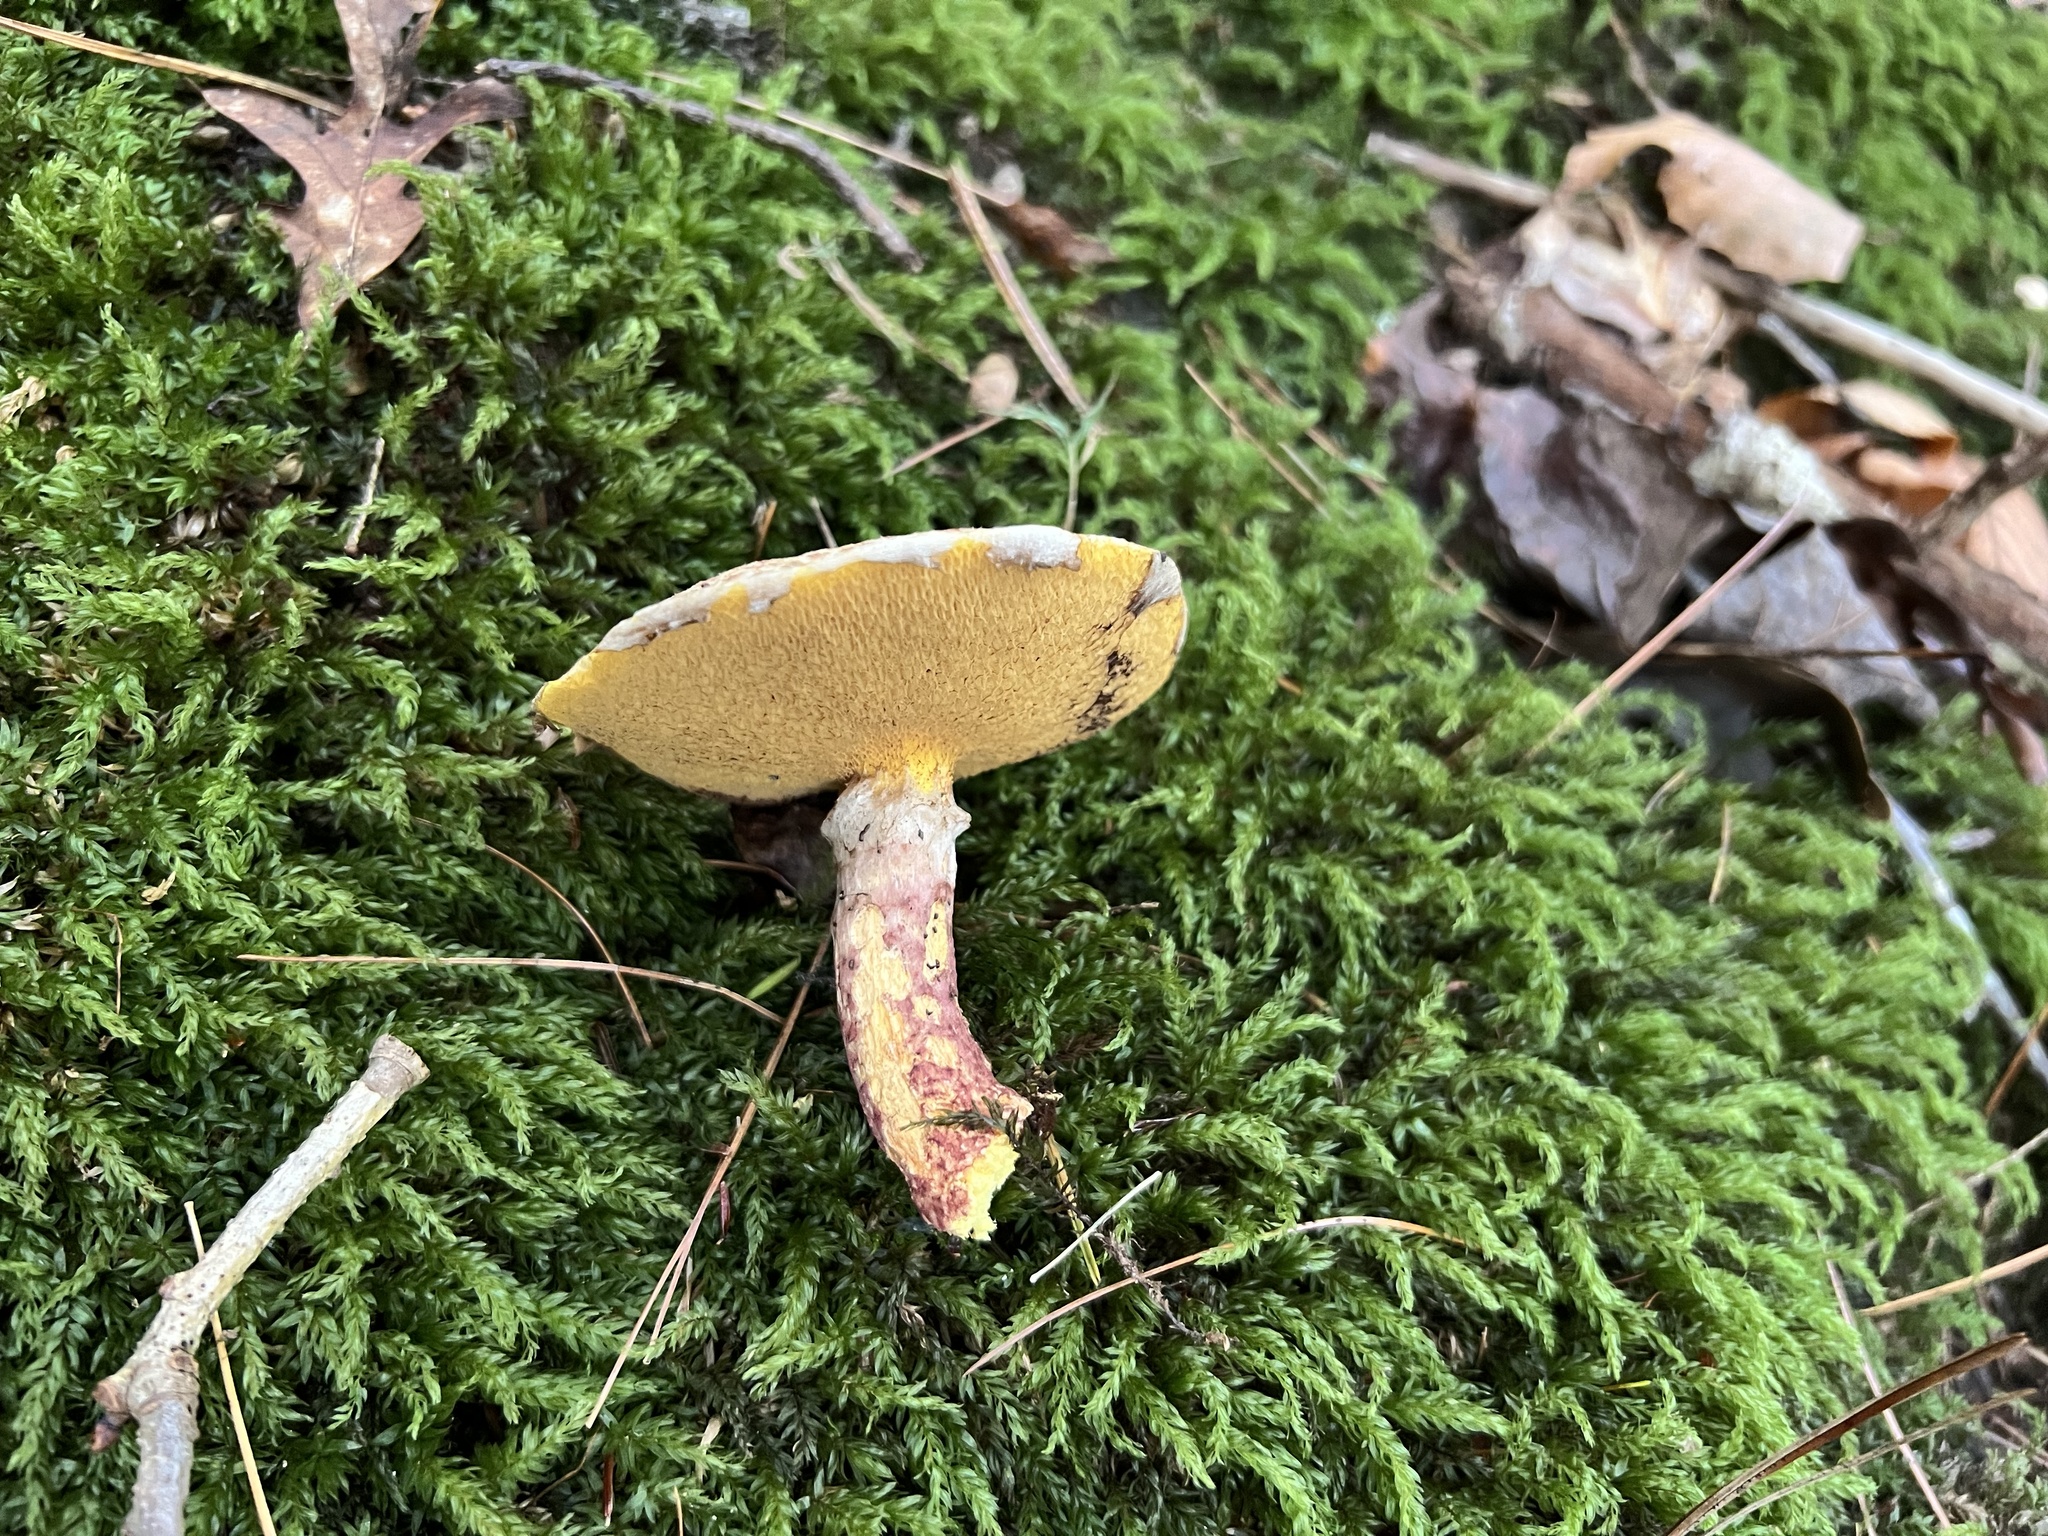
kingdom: Fungi
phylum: Basidiomycota
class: Agaricomycetes
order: Boletales
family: Suillaceae
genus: Suillus
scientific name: Suillus spraguei
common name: Painted suillus
